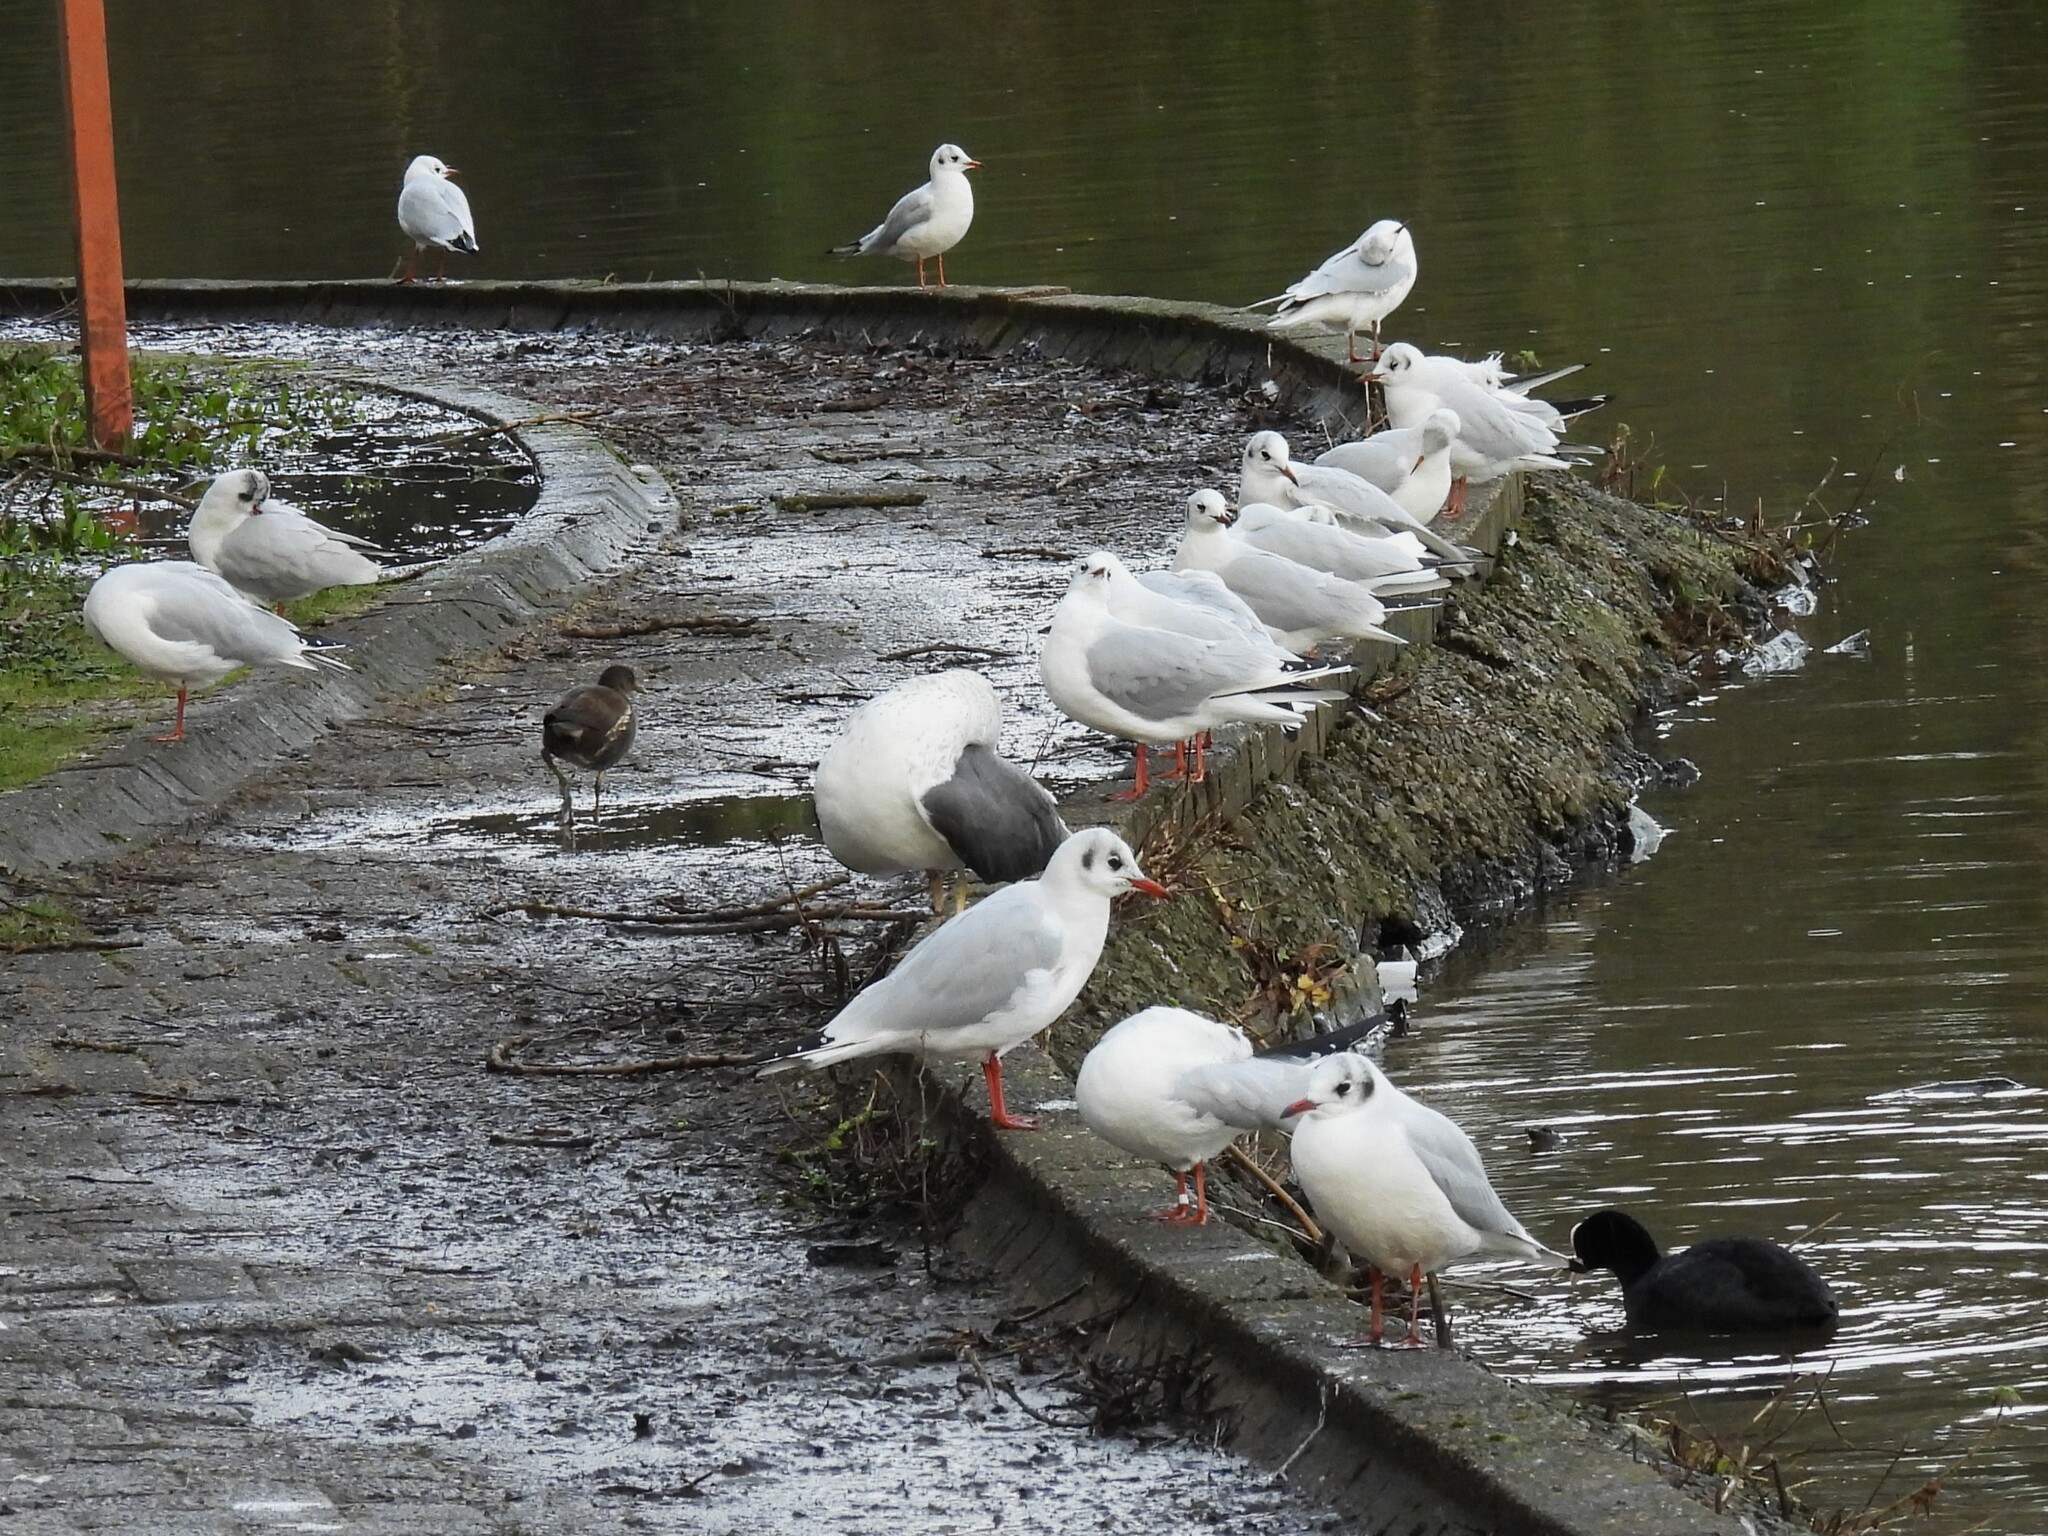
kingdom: Animalia
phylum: Chordata
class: Aves
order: Charadriiformes
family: Laridae
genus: Chroicocephalus
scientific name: Chroicocephalus ridibundus
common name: Black-headed gull
